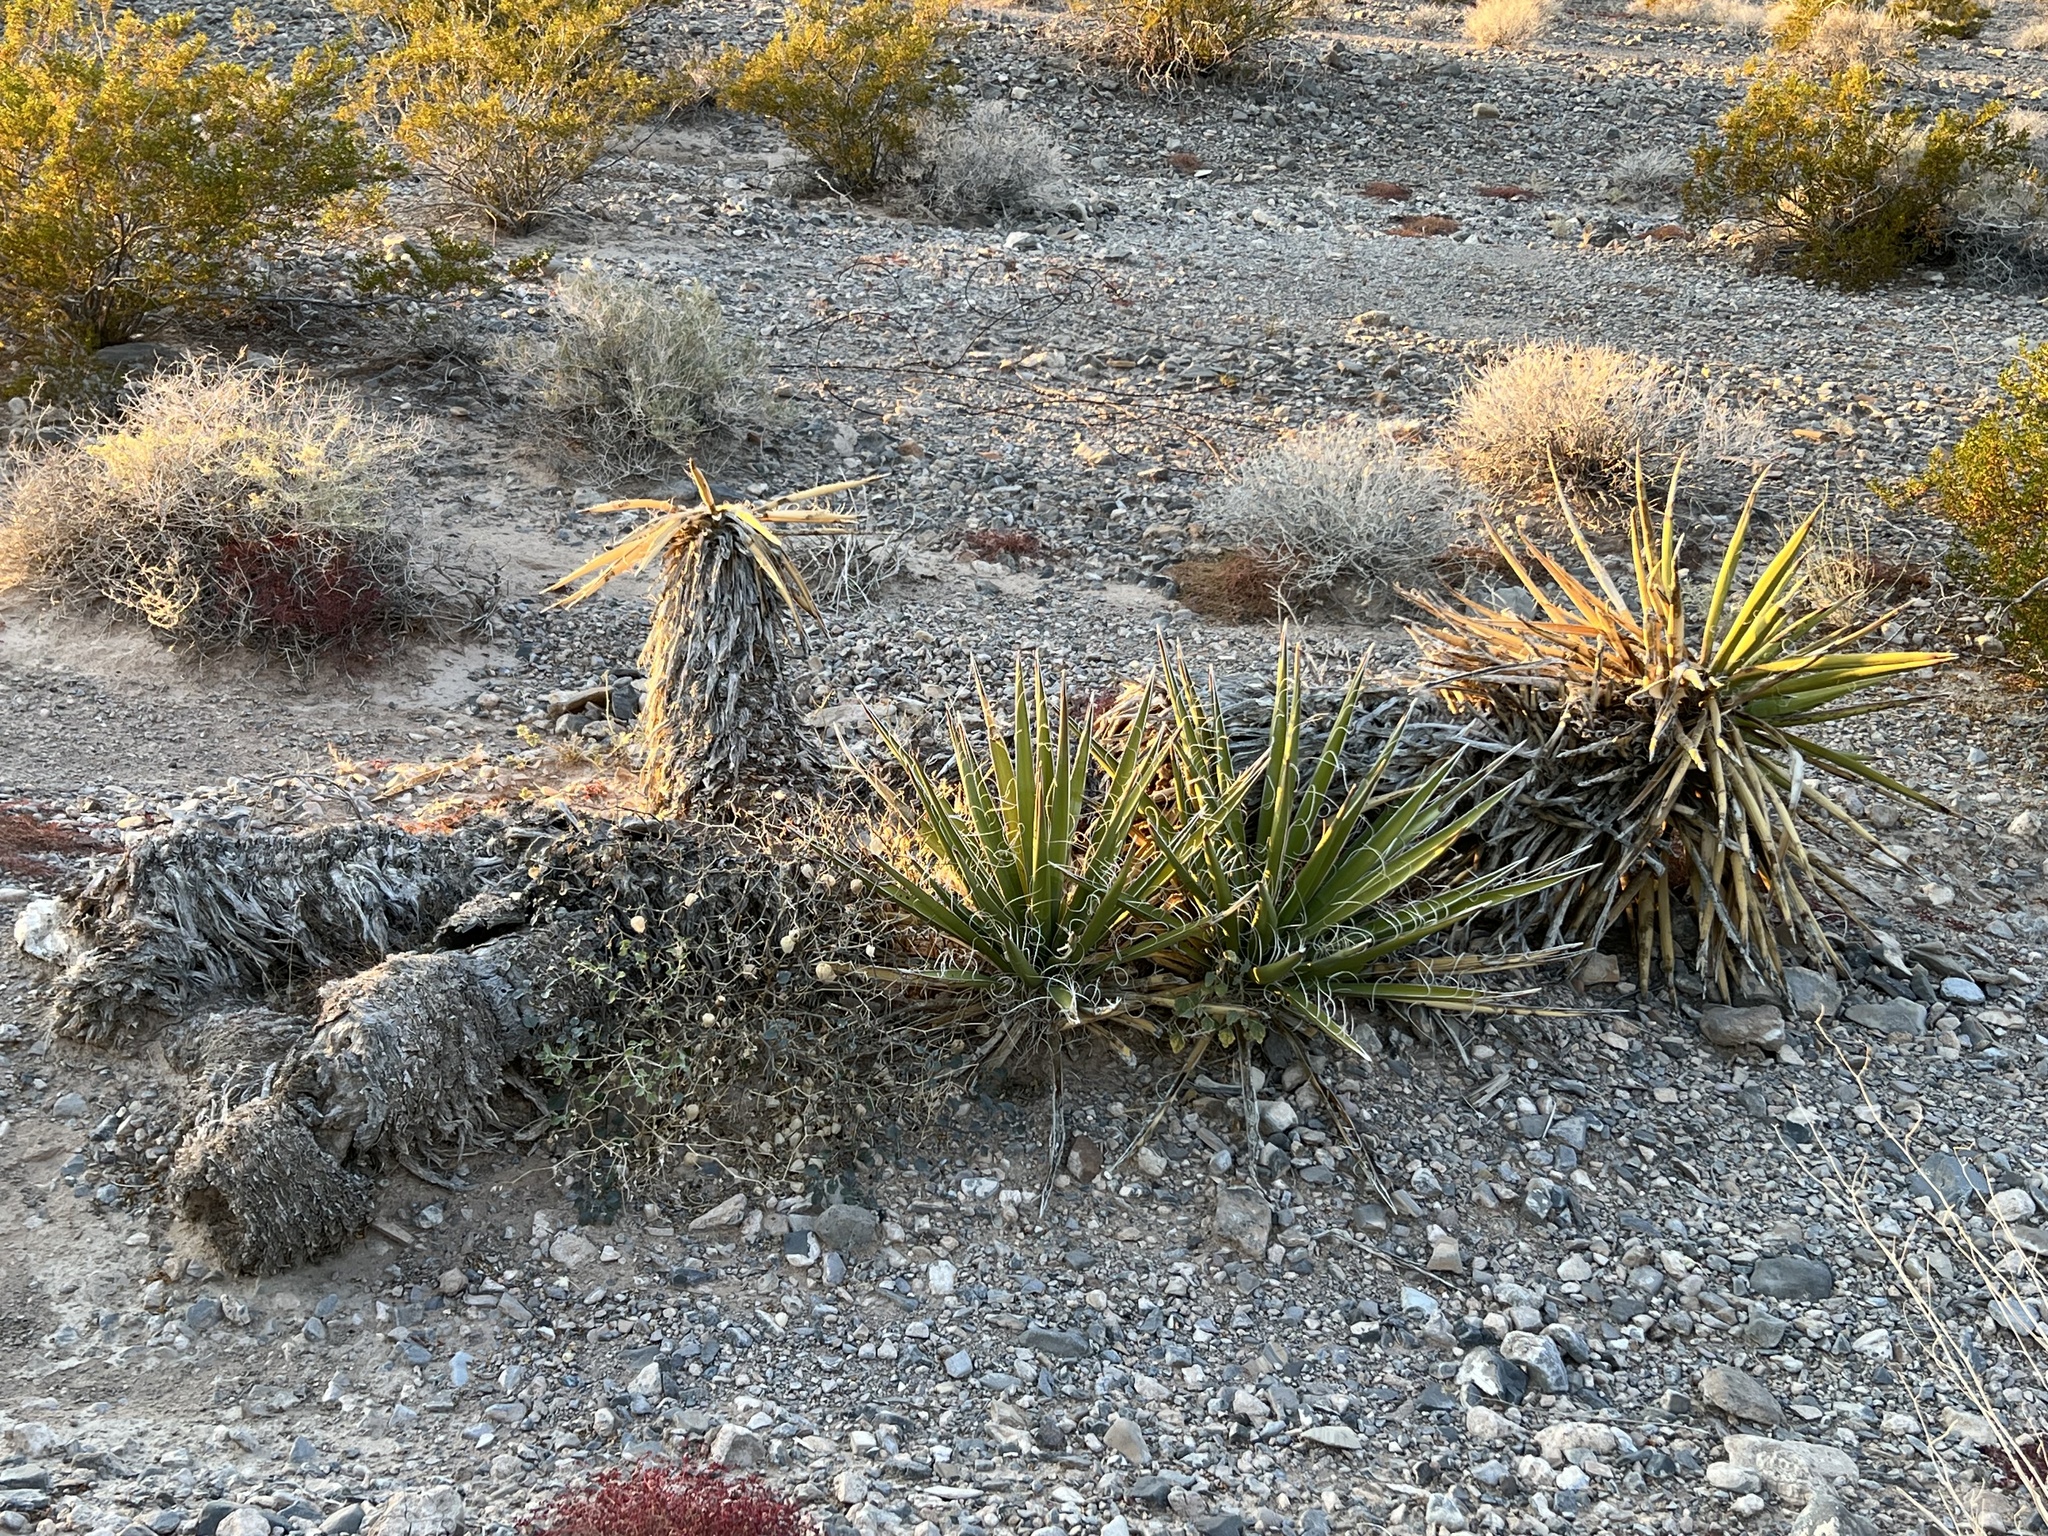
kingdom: Plantae
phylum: Tracheophyta
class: Liliopsida
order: Asparagales
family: Asparagaceae
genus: Yucca
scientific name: Yucca schidigera
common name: Mojave yucca
